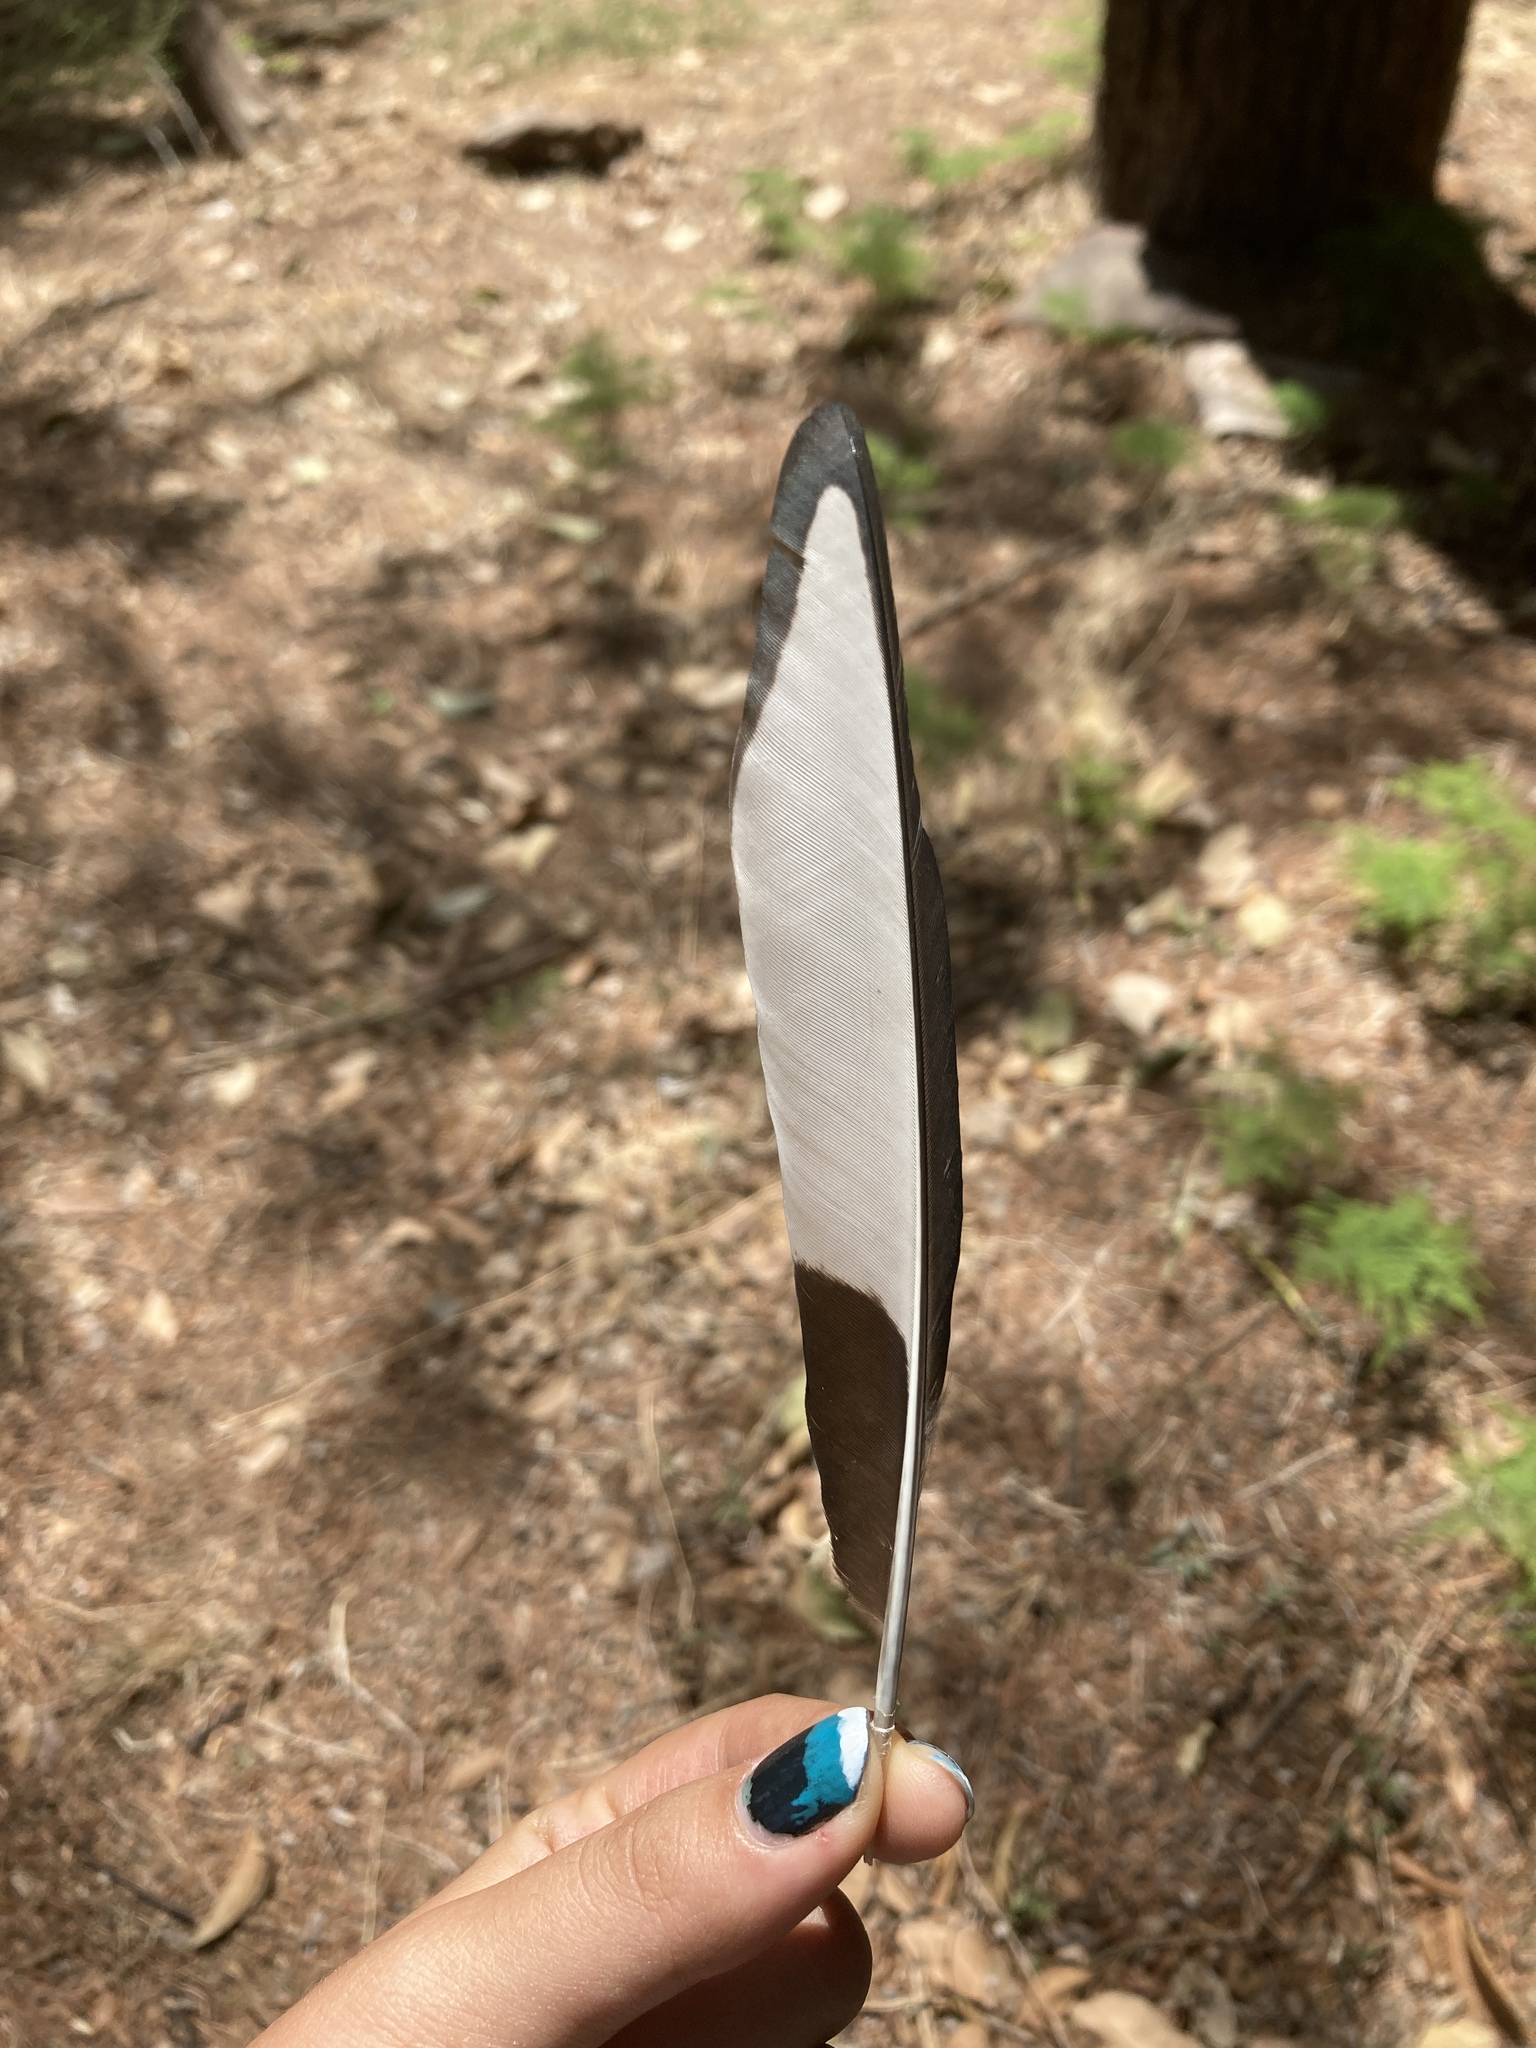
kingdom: Animalia
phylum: Chordata
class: Aves
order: Passeriformes
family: Corvidae
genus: Pica
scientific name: Pica pica
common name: Eurasian magpie
